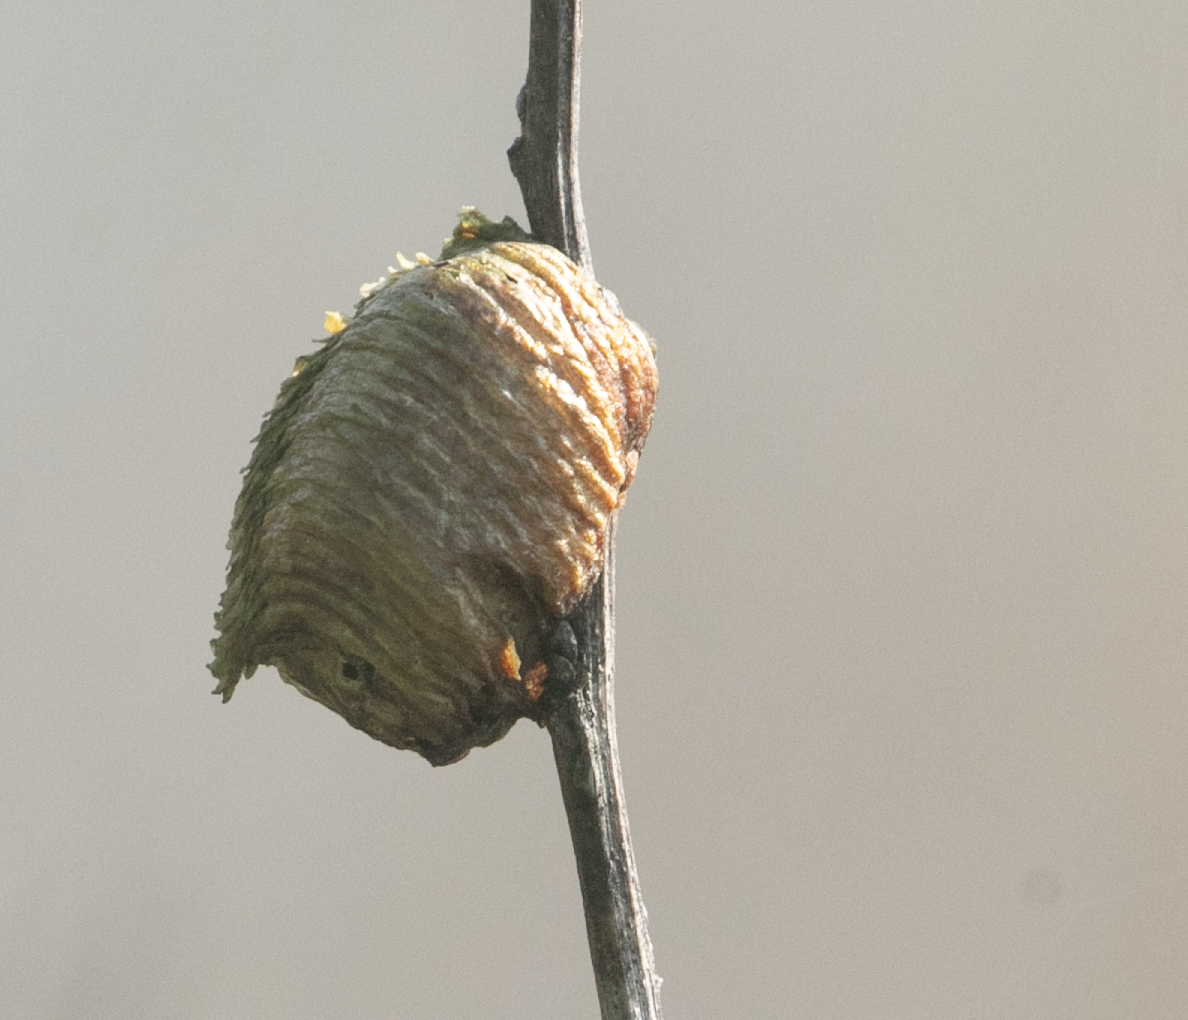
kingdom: Animalia
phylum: Arthropoda
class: Insecta
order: Mantodea
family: Mantidae
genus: Hierodula
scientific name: Hierodula transcaucasica
